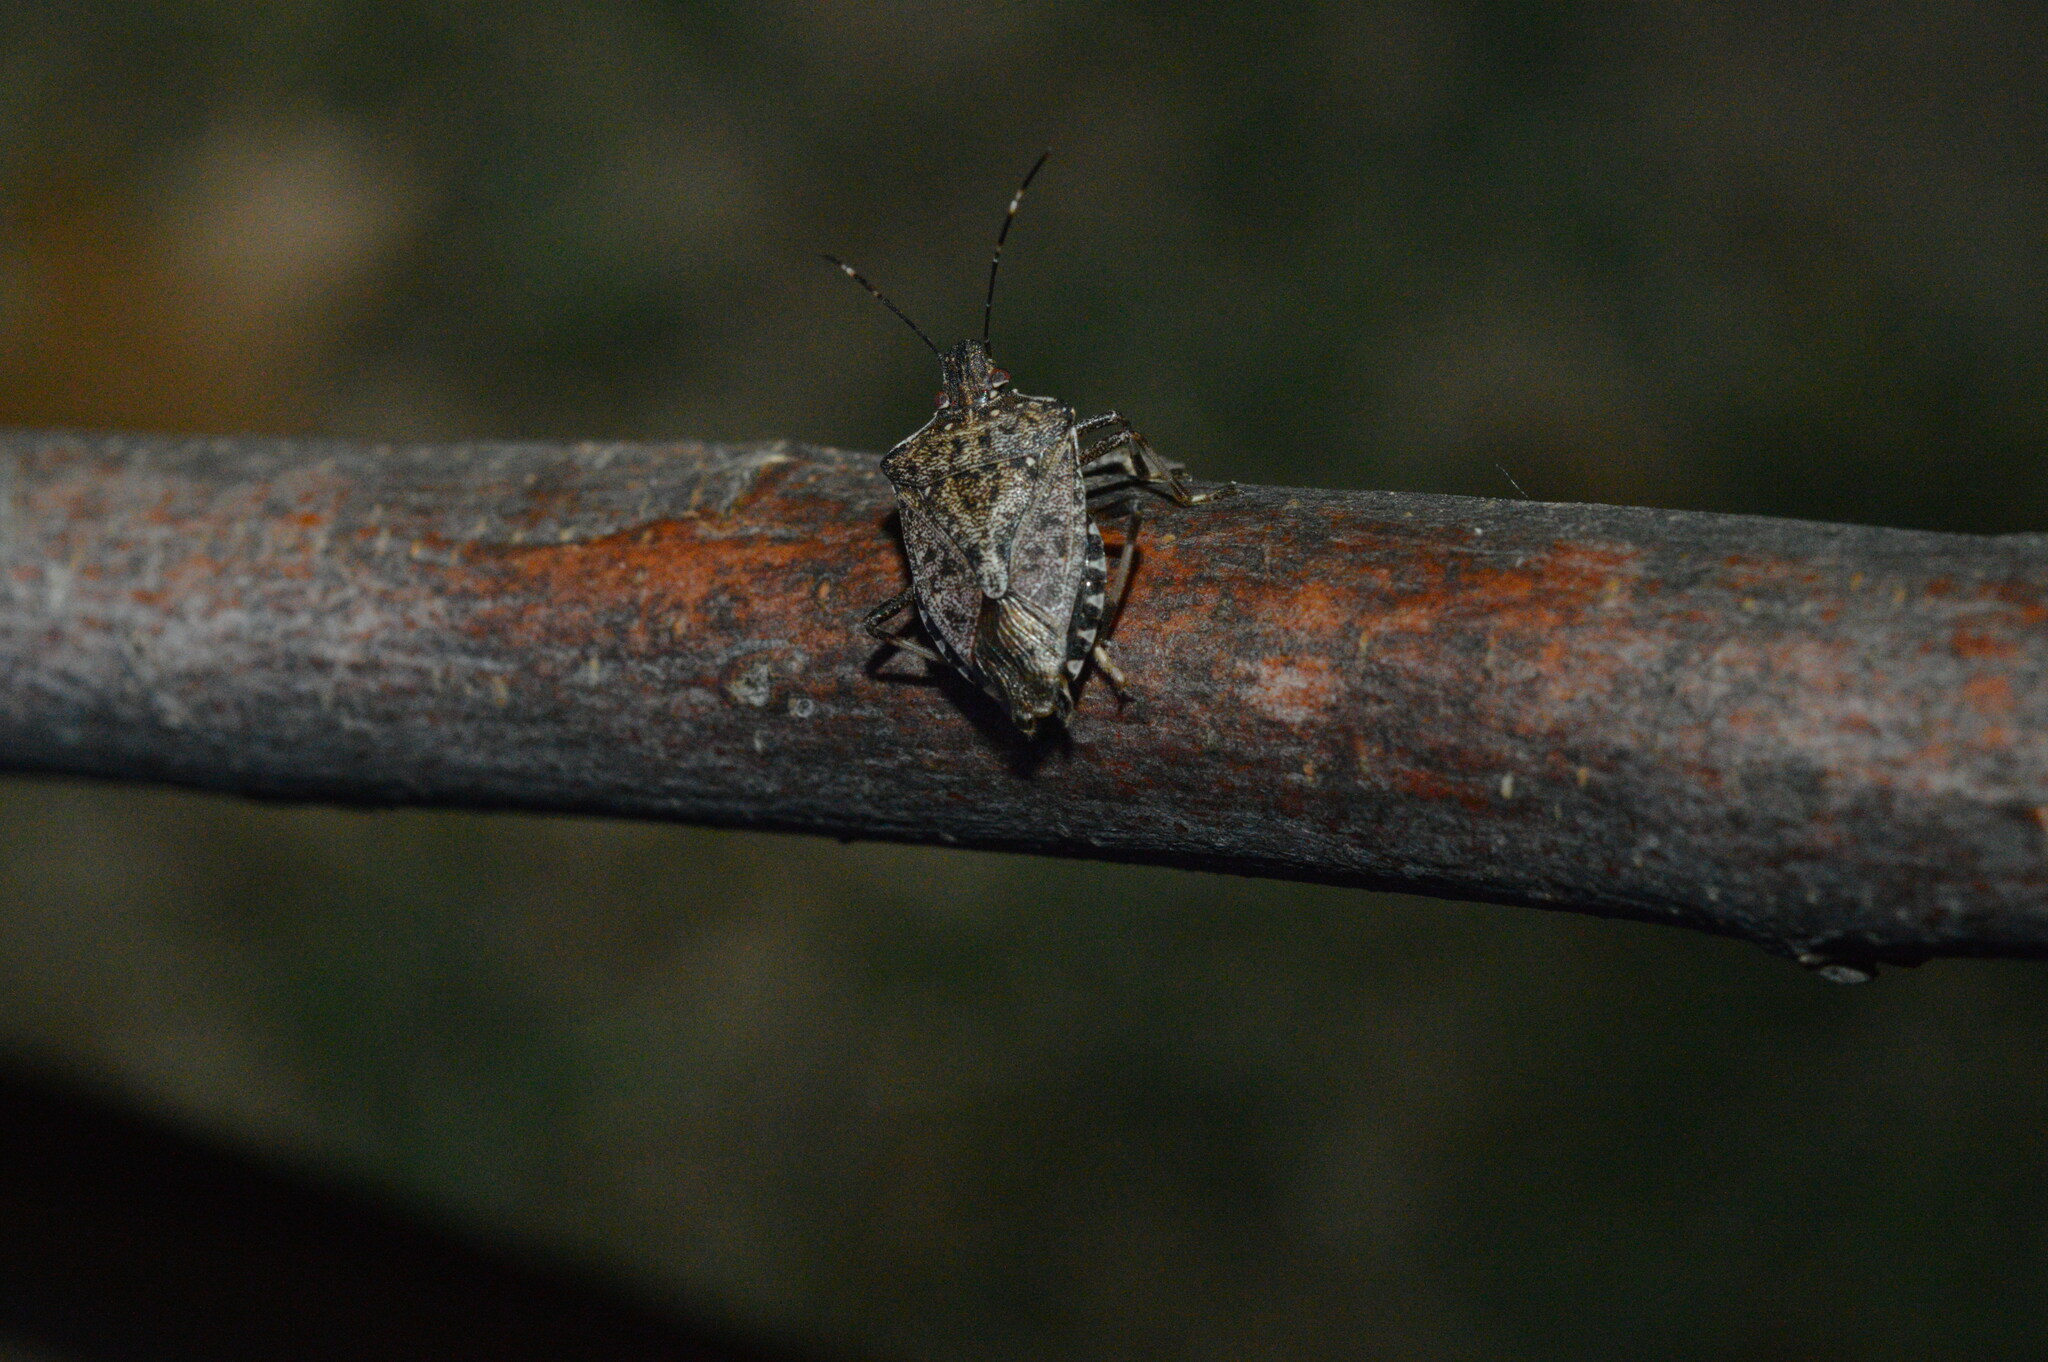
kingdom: Animalia
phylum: Arthropoda
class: Insecta
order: Hemiptera
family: Pentatomidae
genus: Halyomorpha
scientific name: Halyomorpha halys
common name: Brown marmorated stink bug
